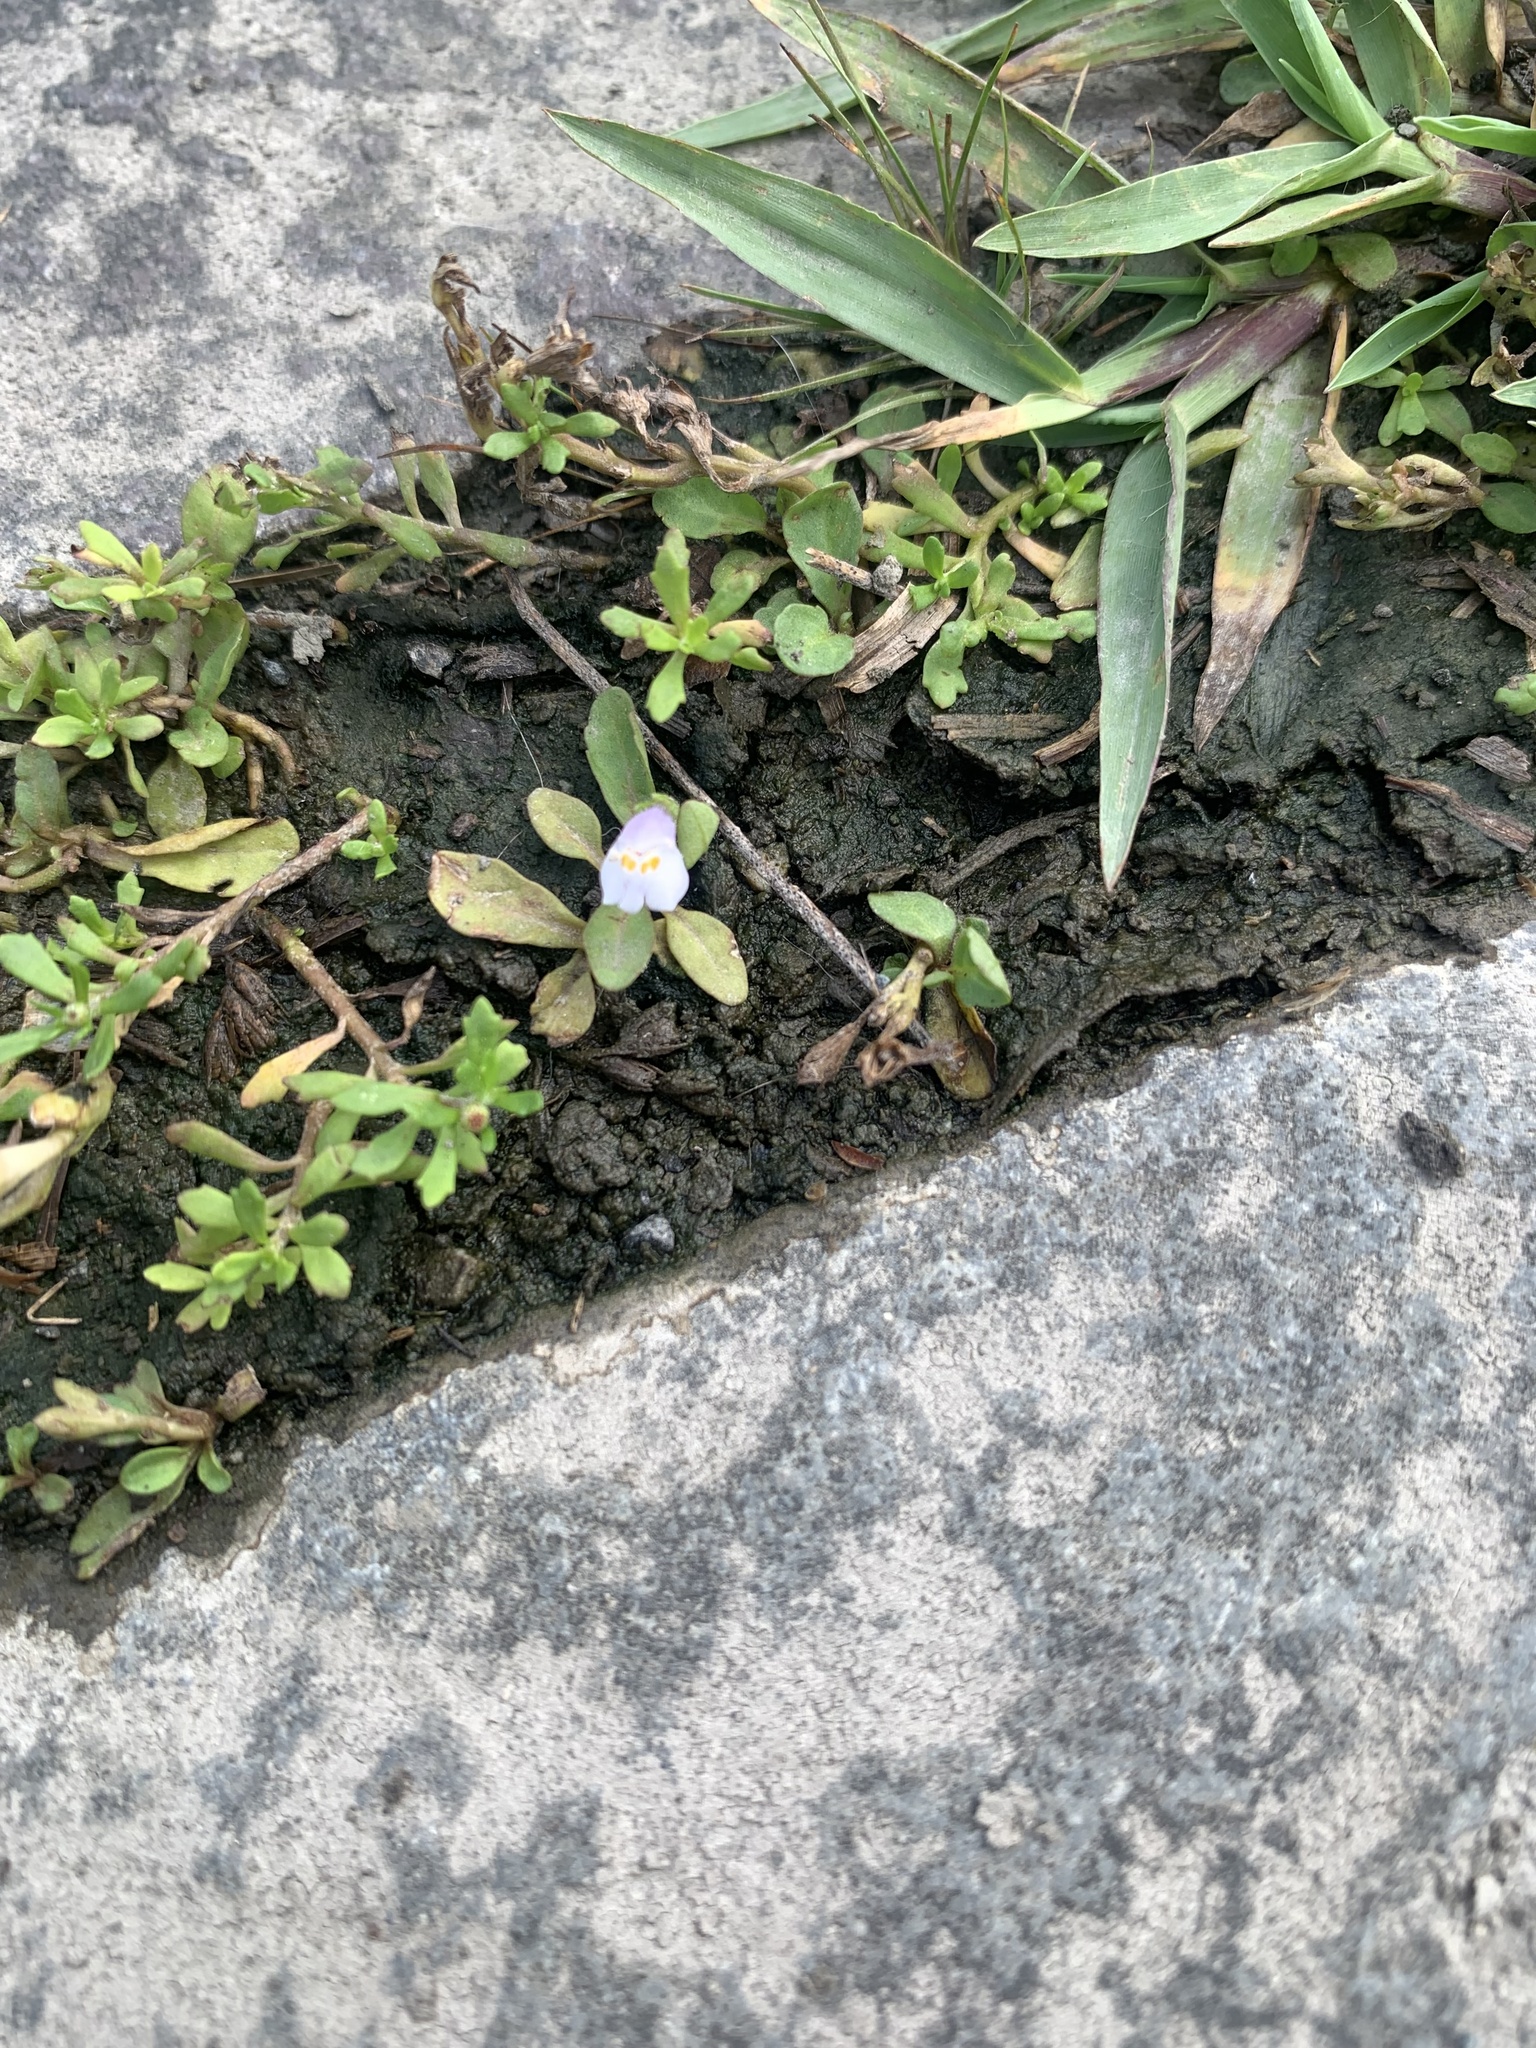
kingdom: Plantae
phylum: Tracheophyta
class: Magnoliopsida
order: Lamiales
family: Mazaceae
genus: Mazus
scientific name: Mazus pumilus
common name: Japanese mazus
